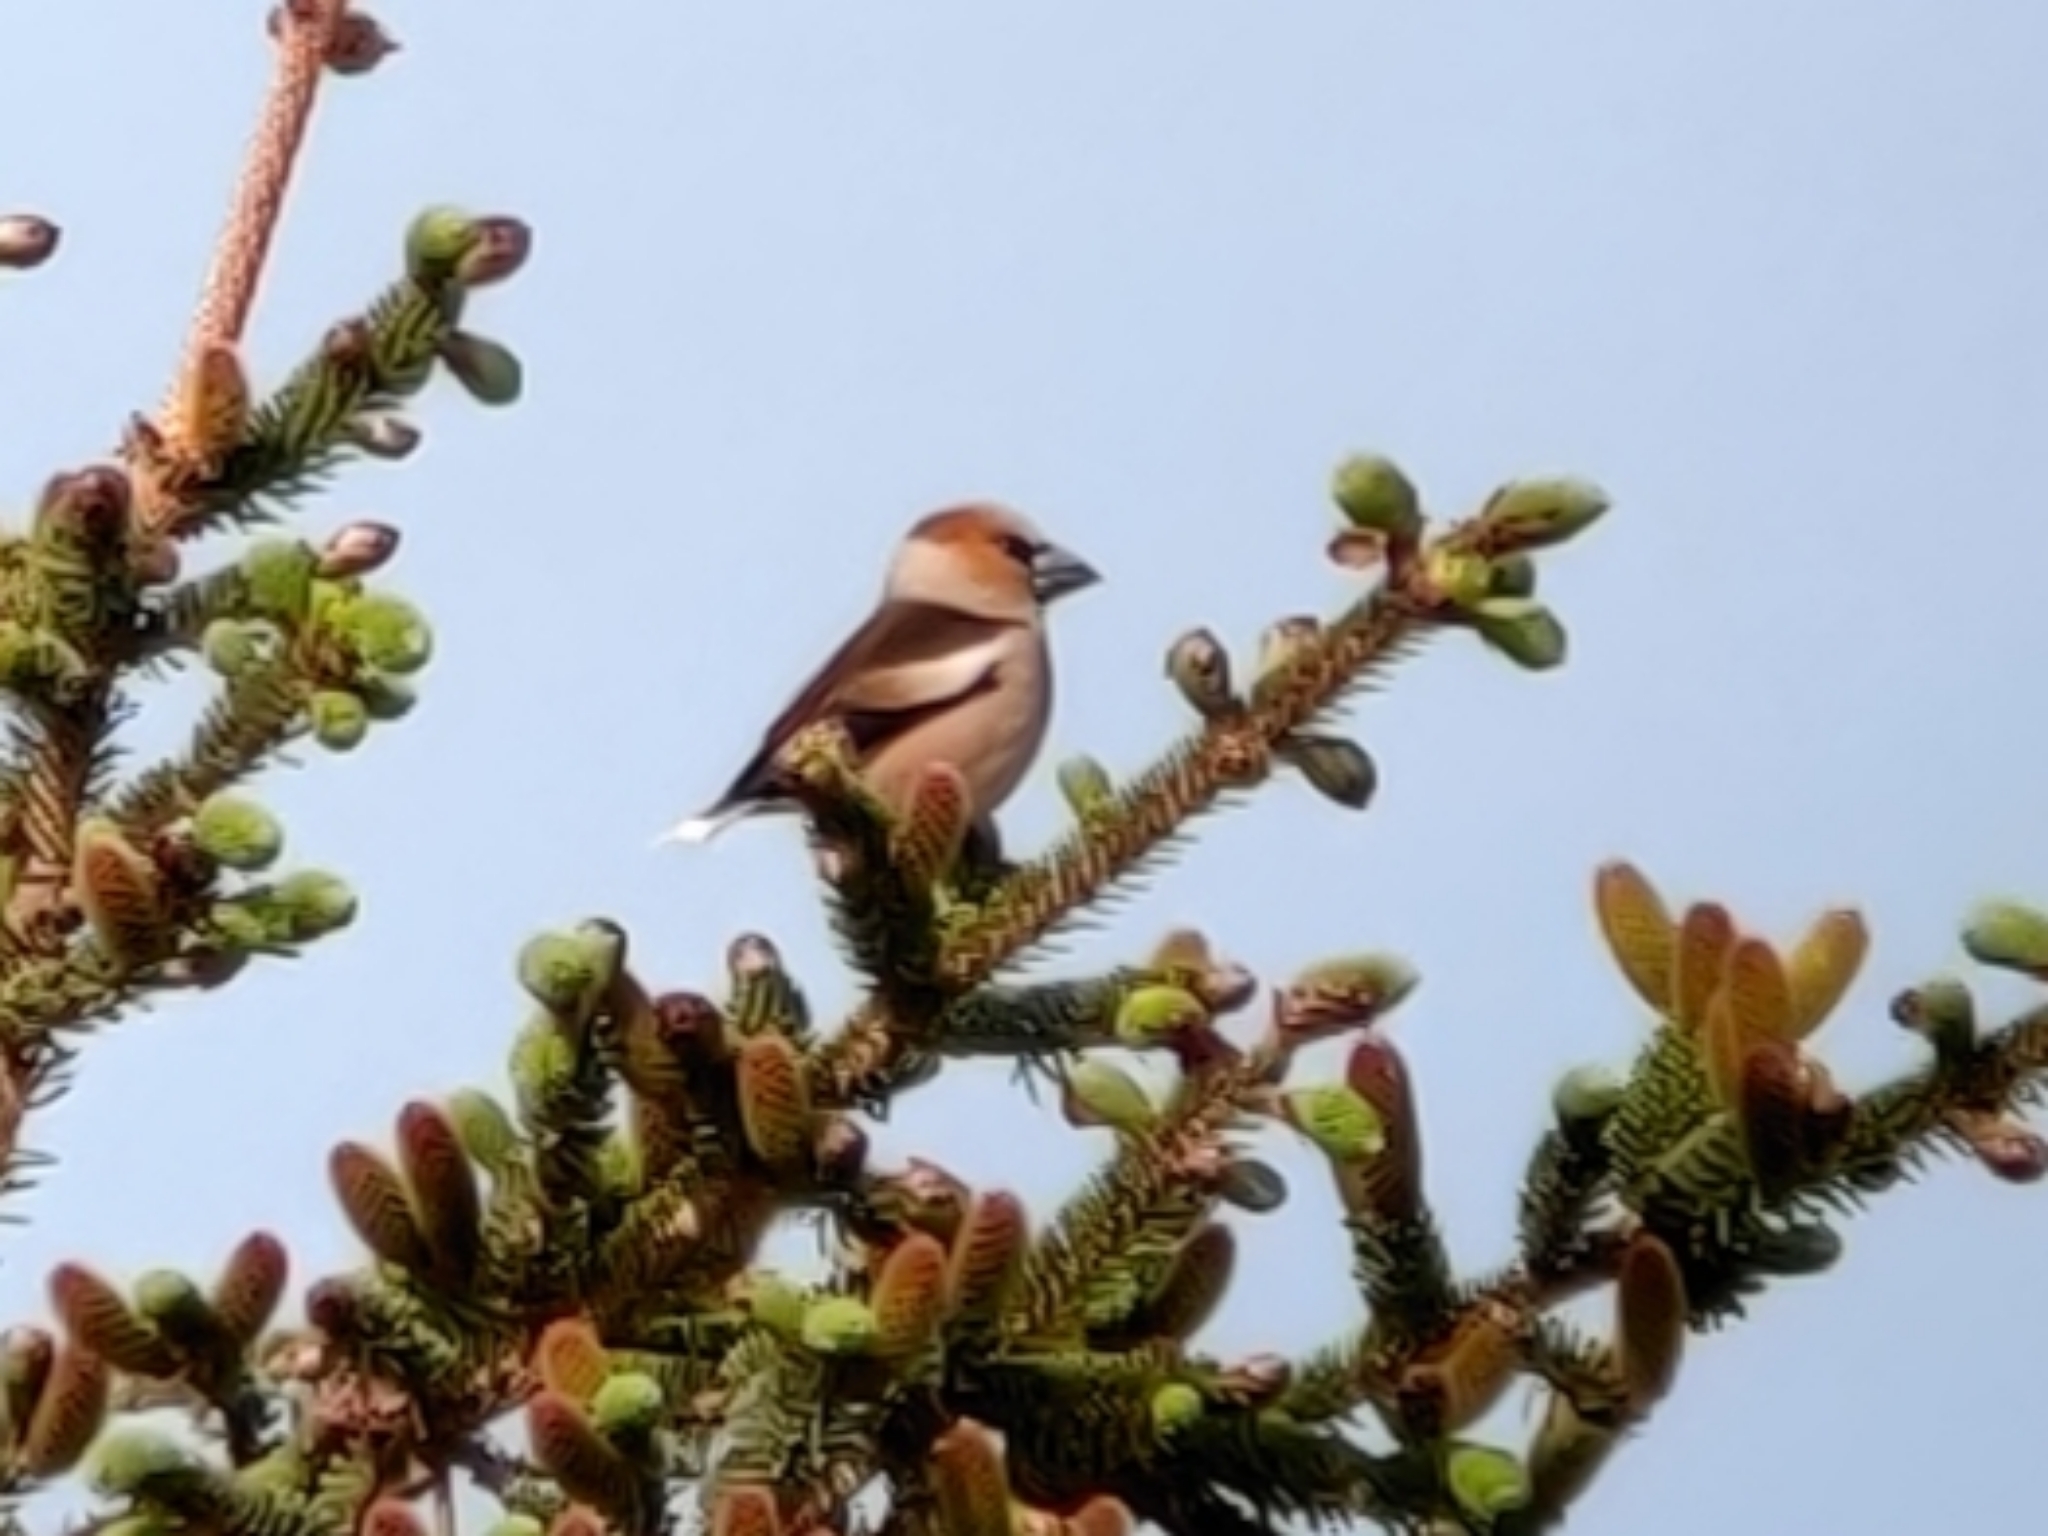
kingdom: Animalia
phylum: Chordata
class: Aves
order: Passeriformes
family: Fringillidae
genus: Coccothraustes
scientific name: Coccothraustes coccothraustes
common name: Hawfinch
